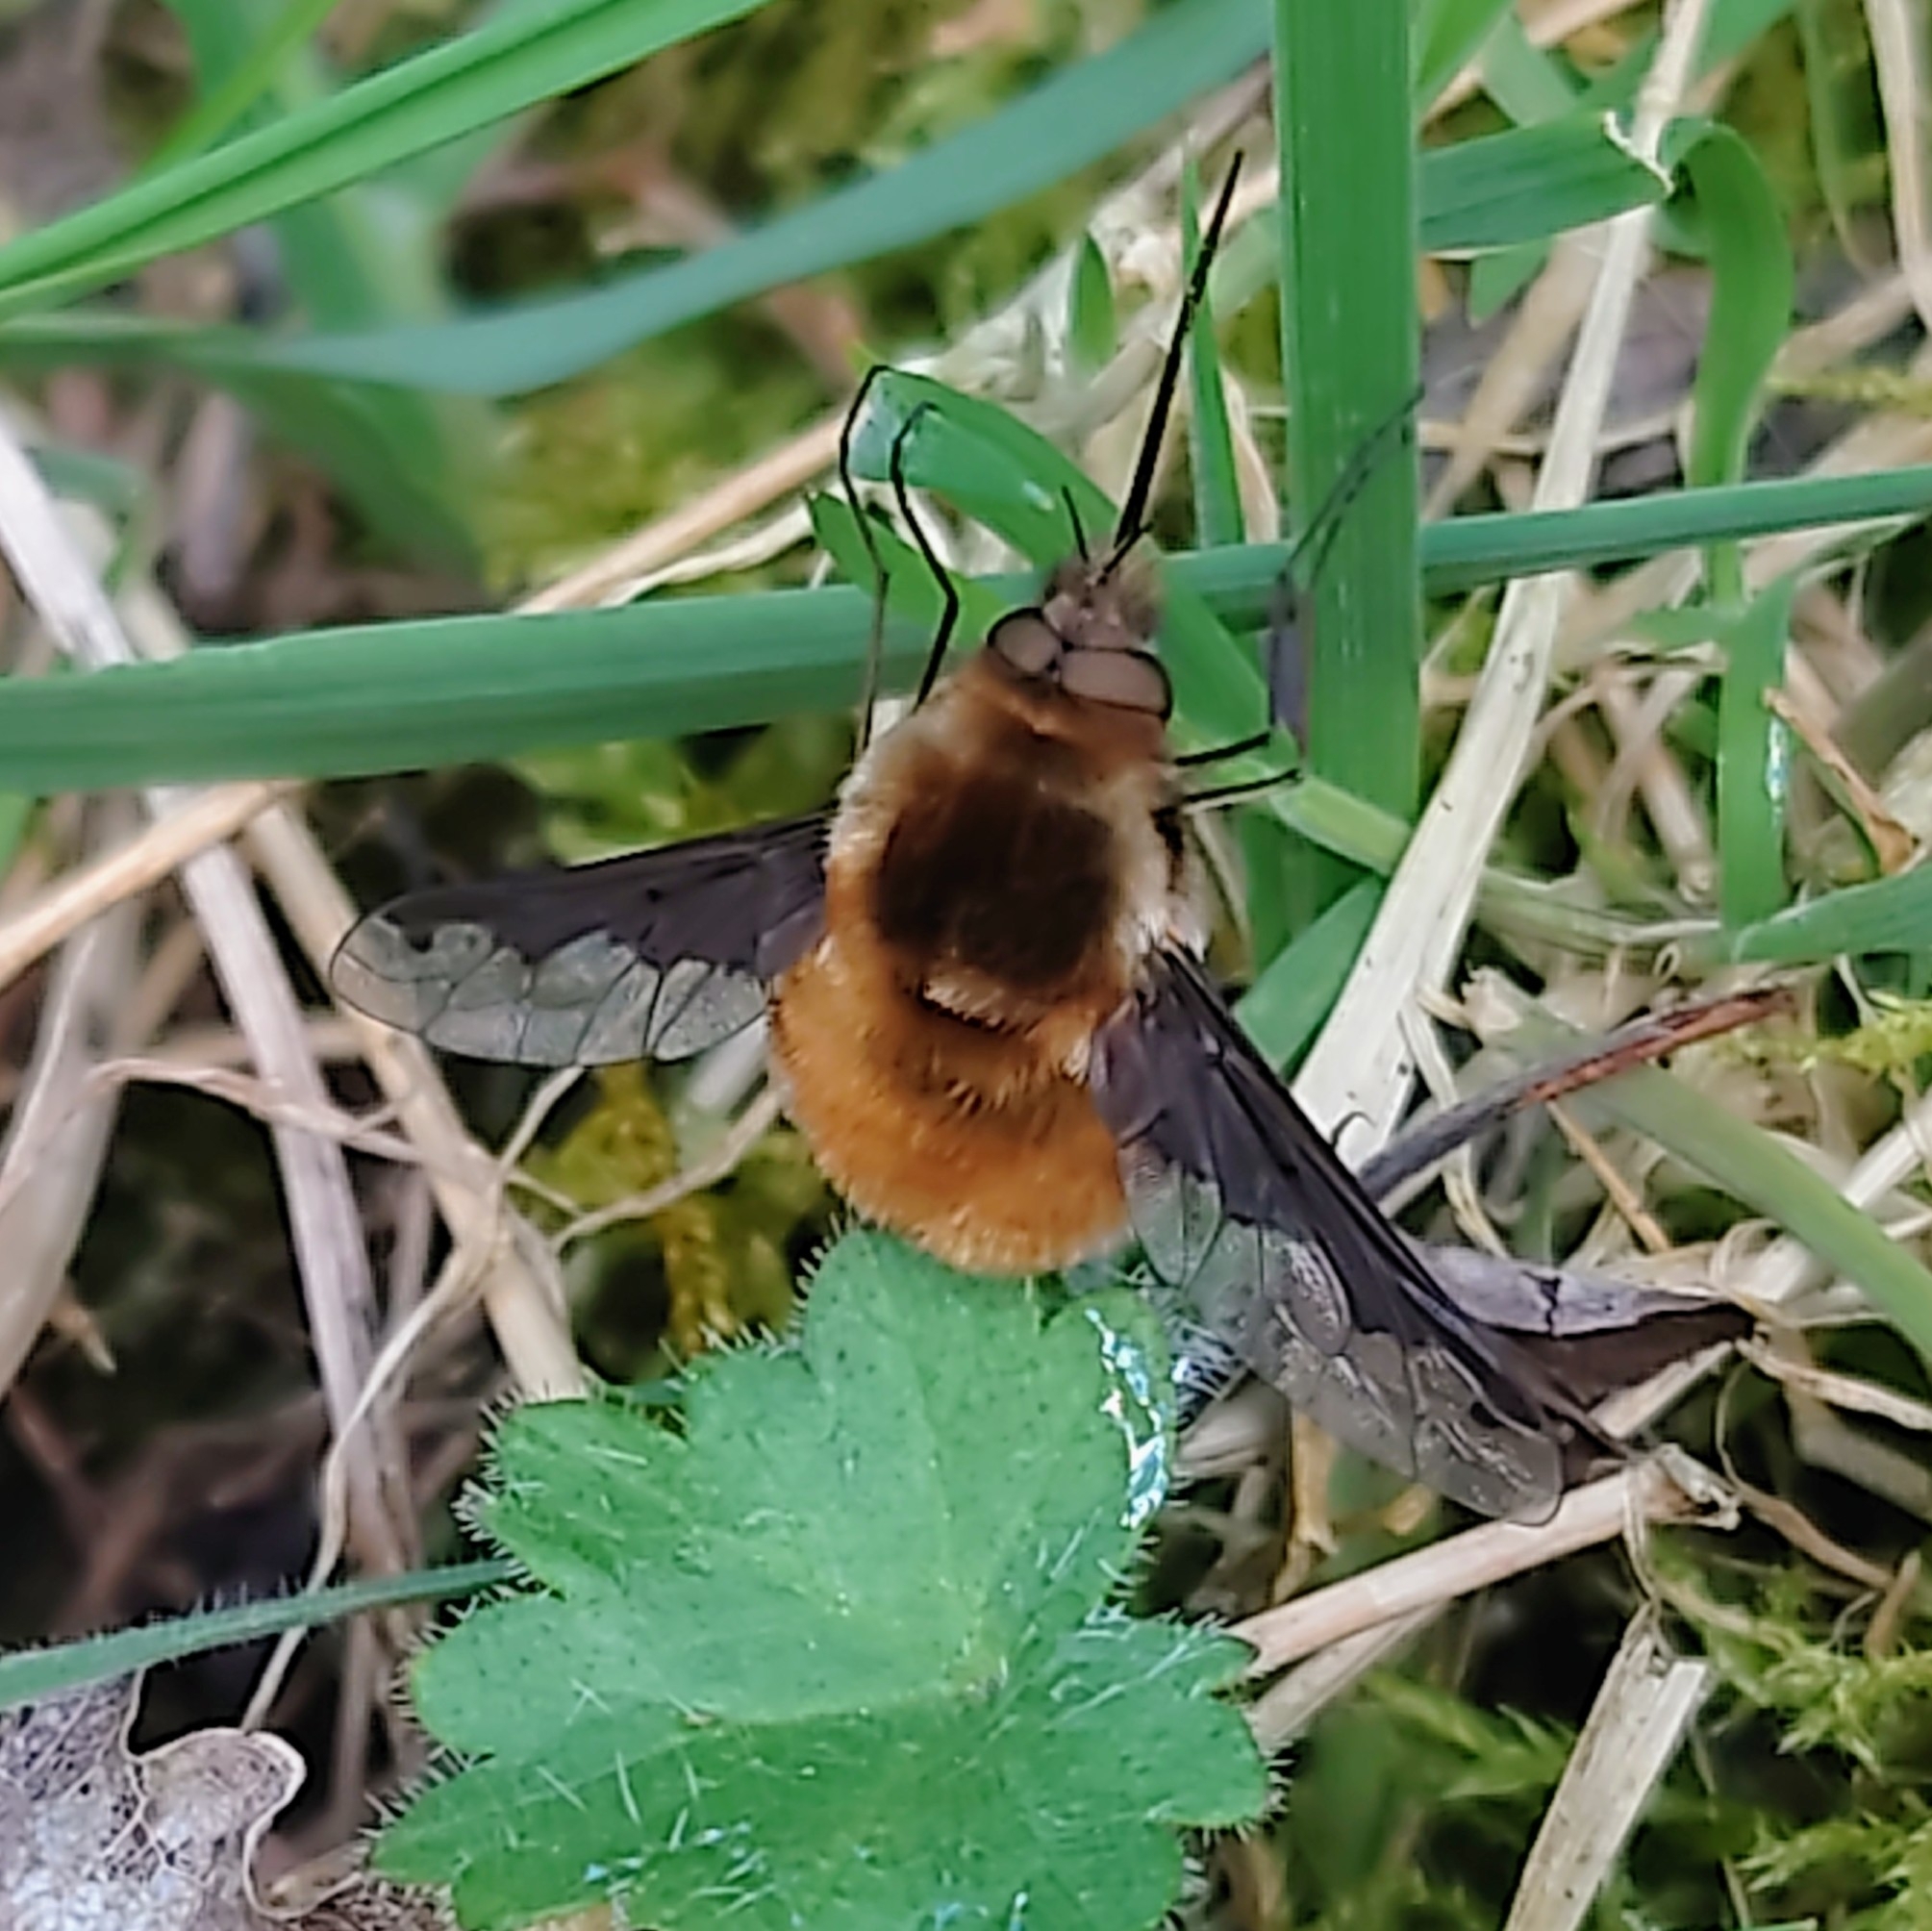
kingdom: Animalia
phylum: Arthropoda
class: Insecta
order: Diptera
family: Bombyliidae
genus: Bombylius
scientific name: Bombylius major
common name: Bee fly
